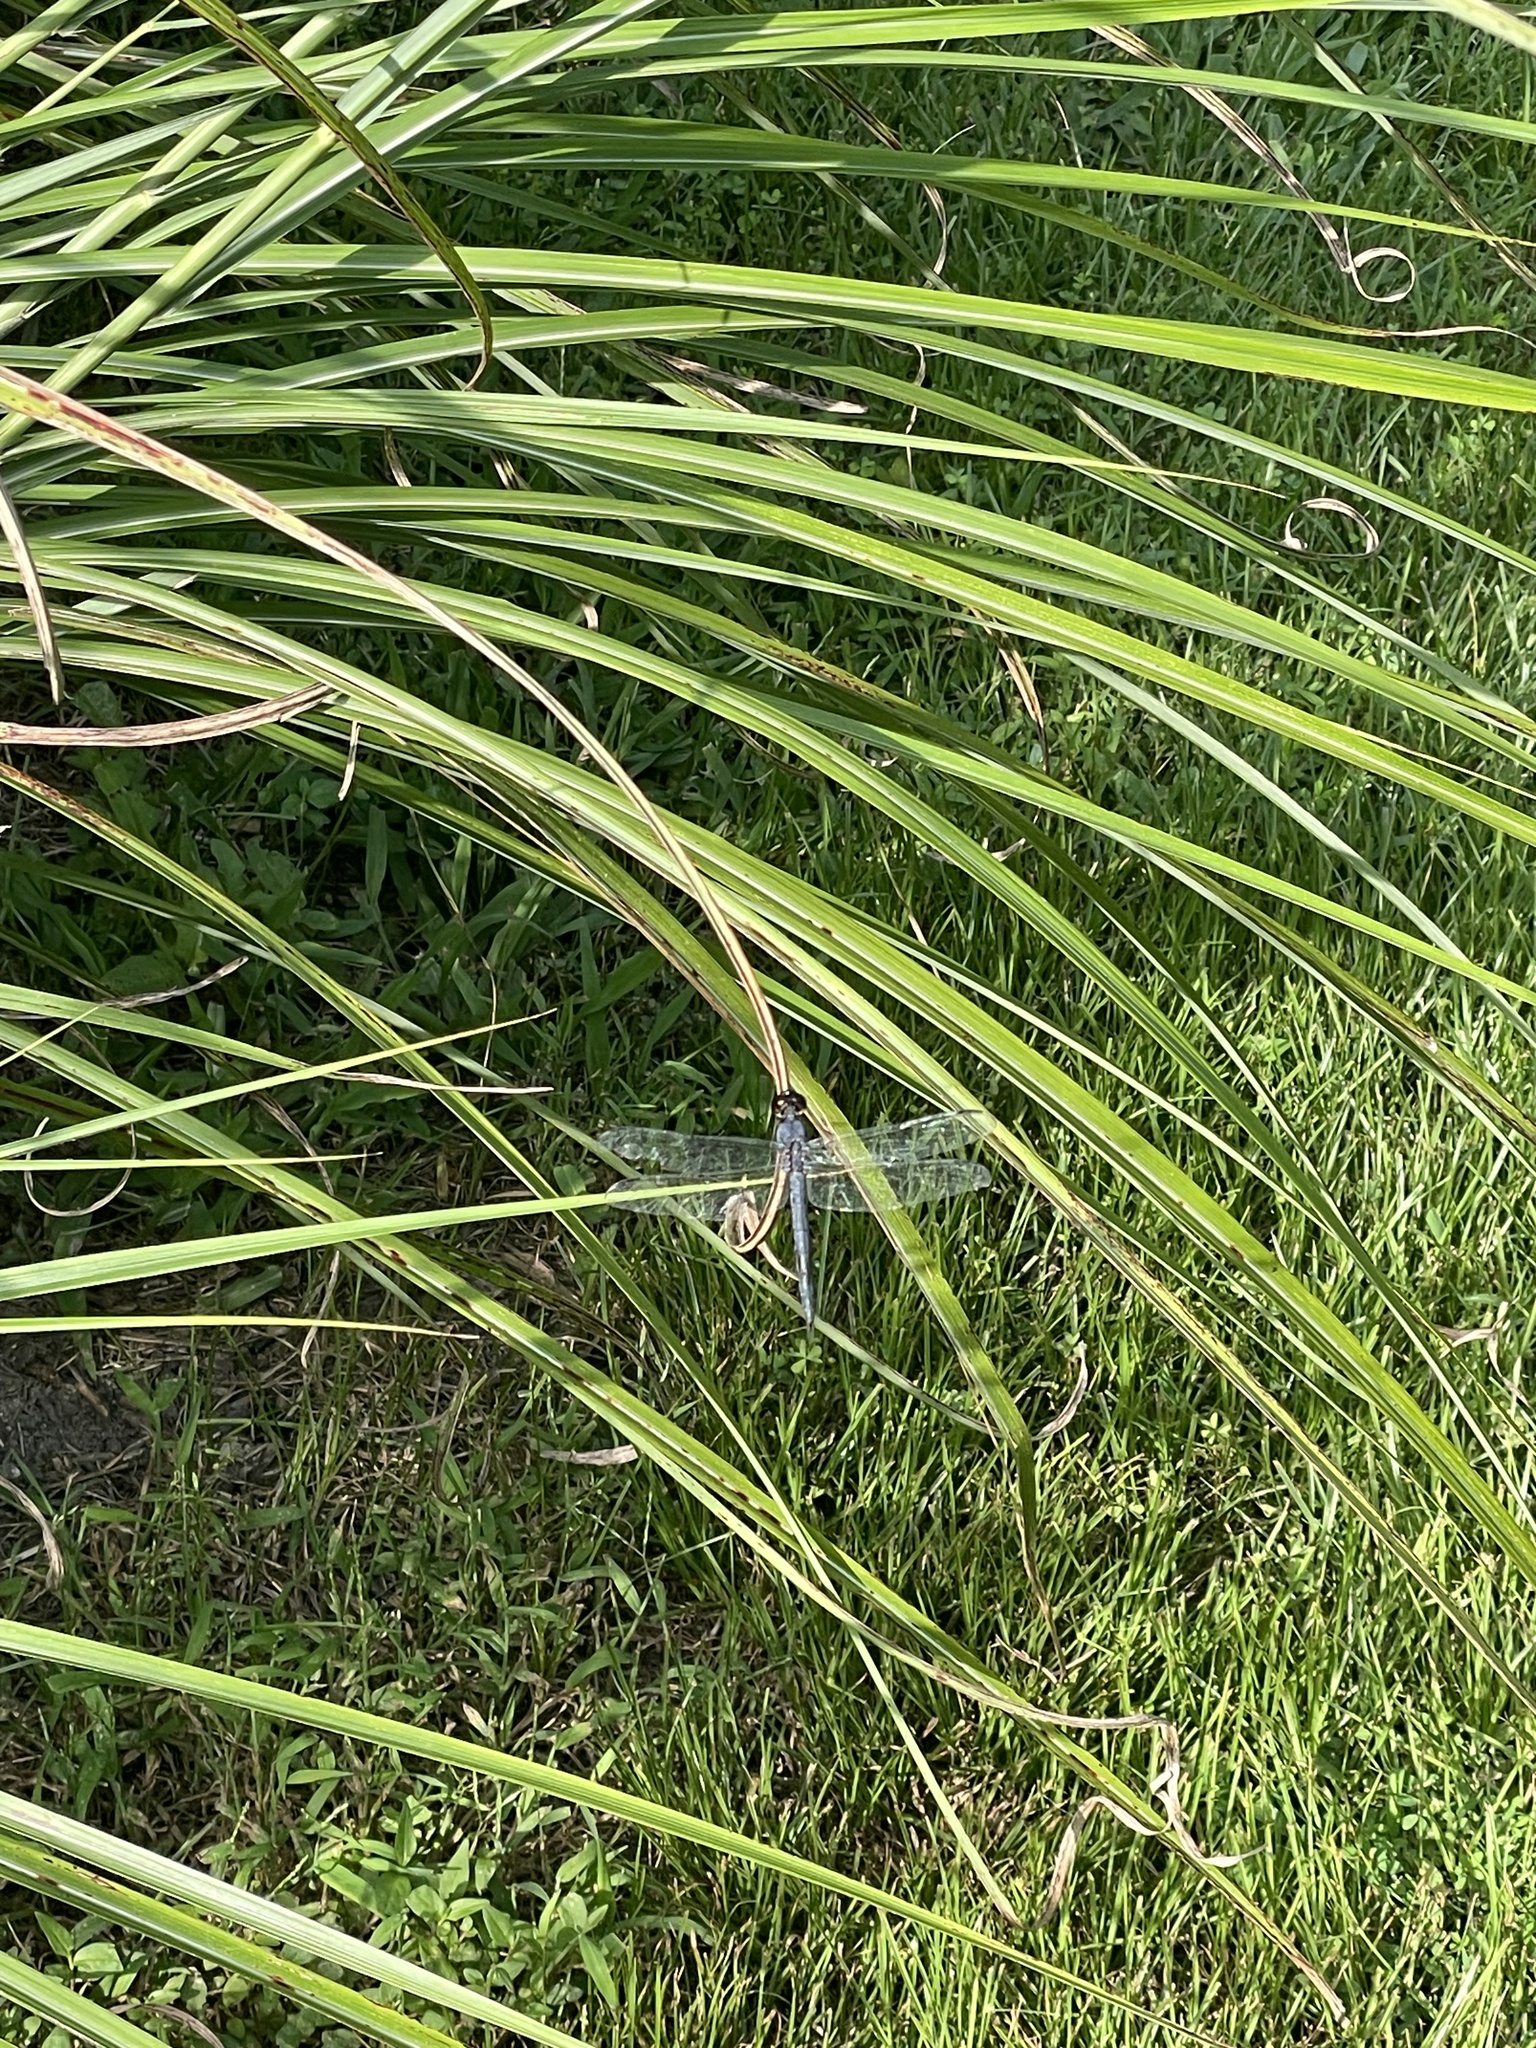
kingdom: Animalia
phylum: Arthropoda
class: Insecta
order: Odonata
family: Libellulidae
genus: Libellula
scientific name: Libellula incesta
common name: Slaty skimmer
